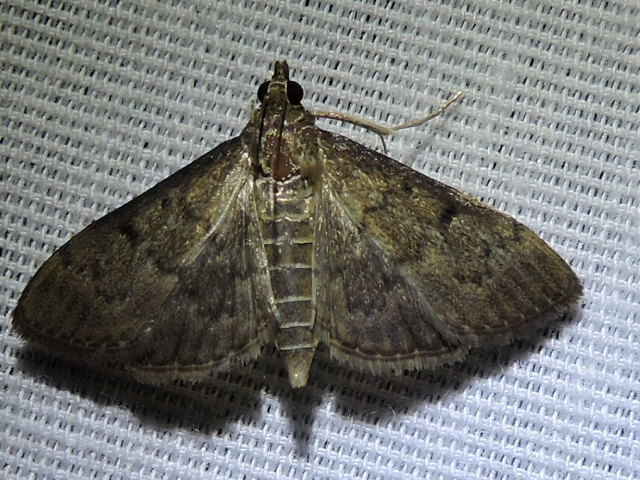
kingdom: Animalia
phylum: Arthropoda
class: Insecta
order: Lepidoptera
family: Crambidae
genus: Herpetogramma
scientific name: Herpetogramma phaeopteralis
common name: Dusky herpetogramma moth
